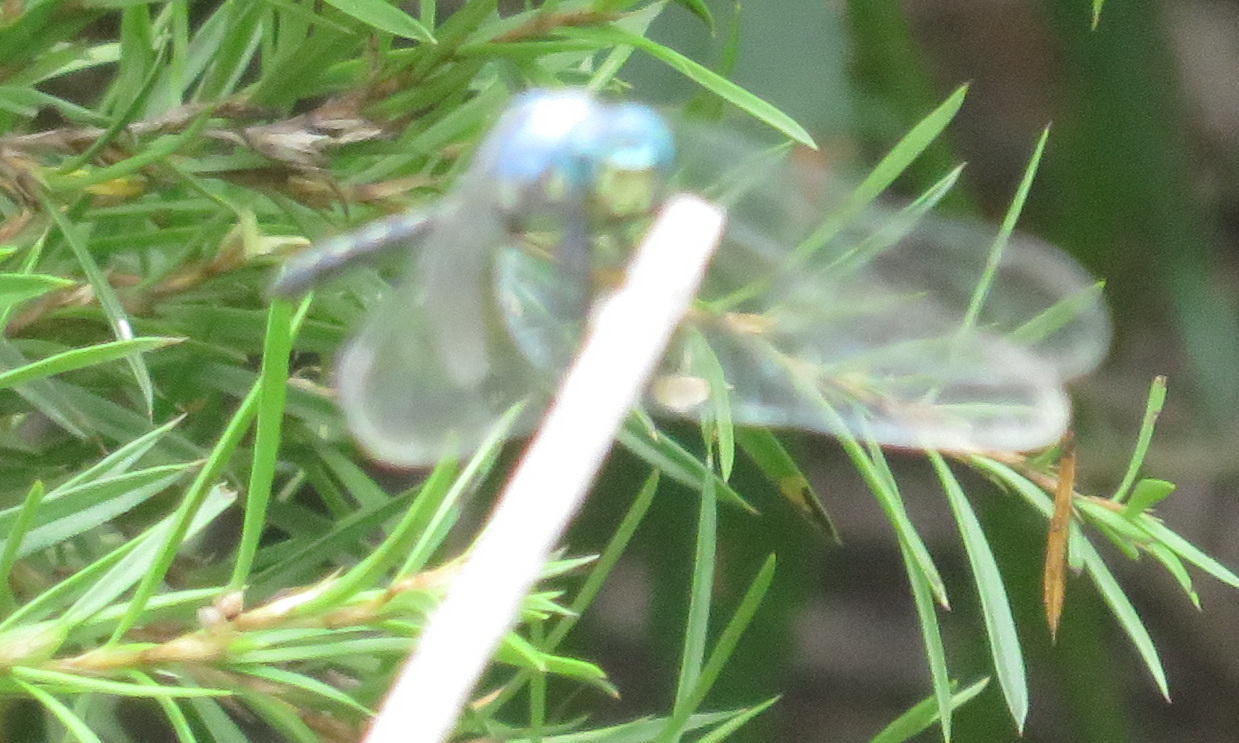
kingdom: Animalia
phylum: Arthropoda
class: Insecta
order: Odonata
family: Libellulidae
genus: Trithemis
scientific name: Trithemis stictica
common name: Jaunty dropwing
